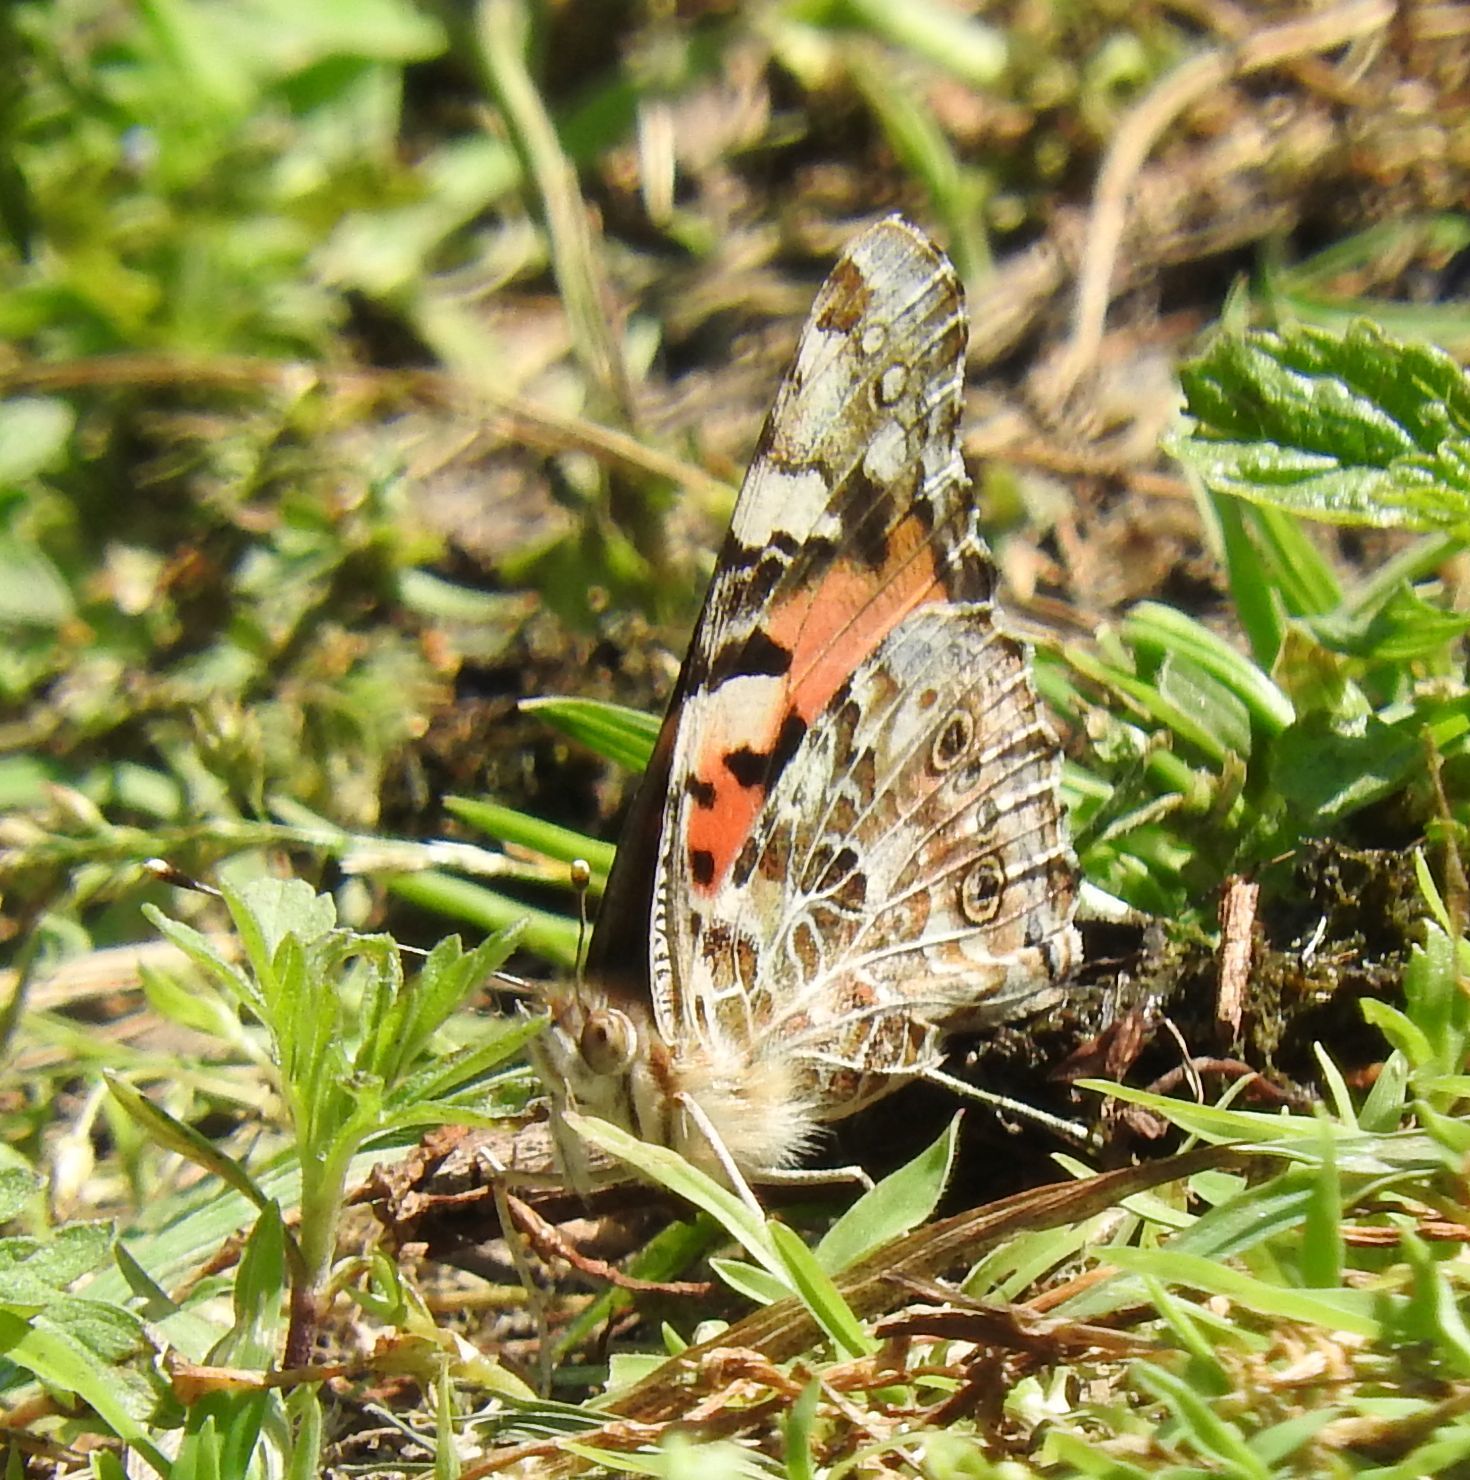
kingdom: Animalia
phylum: Arthropoda
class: Insecta
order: Lepidoptera
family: Nymphalidae
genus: Vanessa
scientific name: Vanessa cardui
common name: Painted lady
